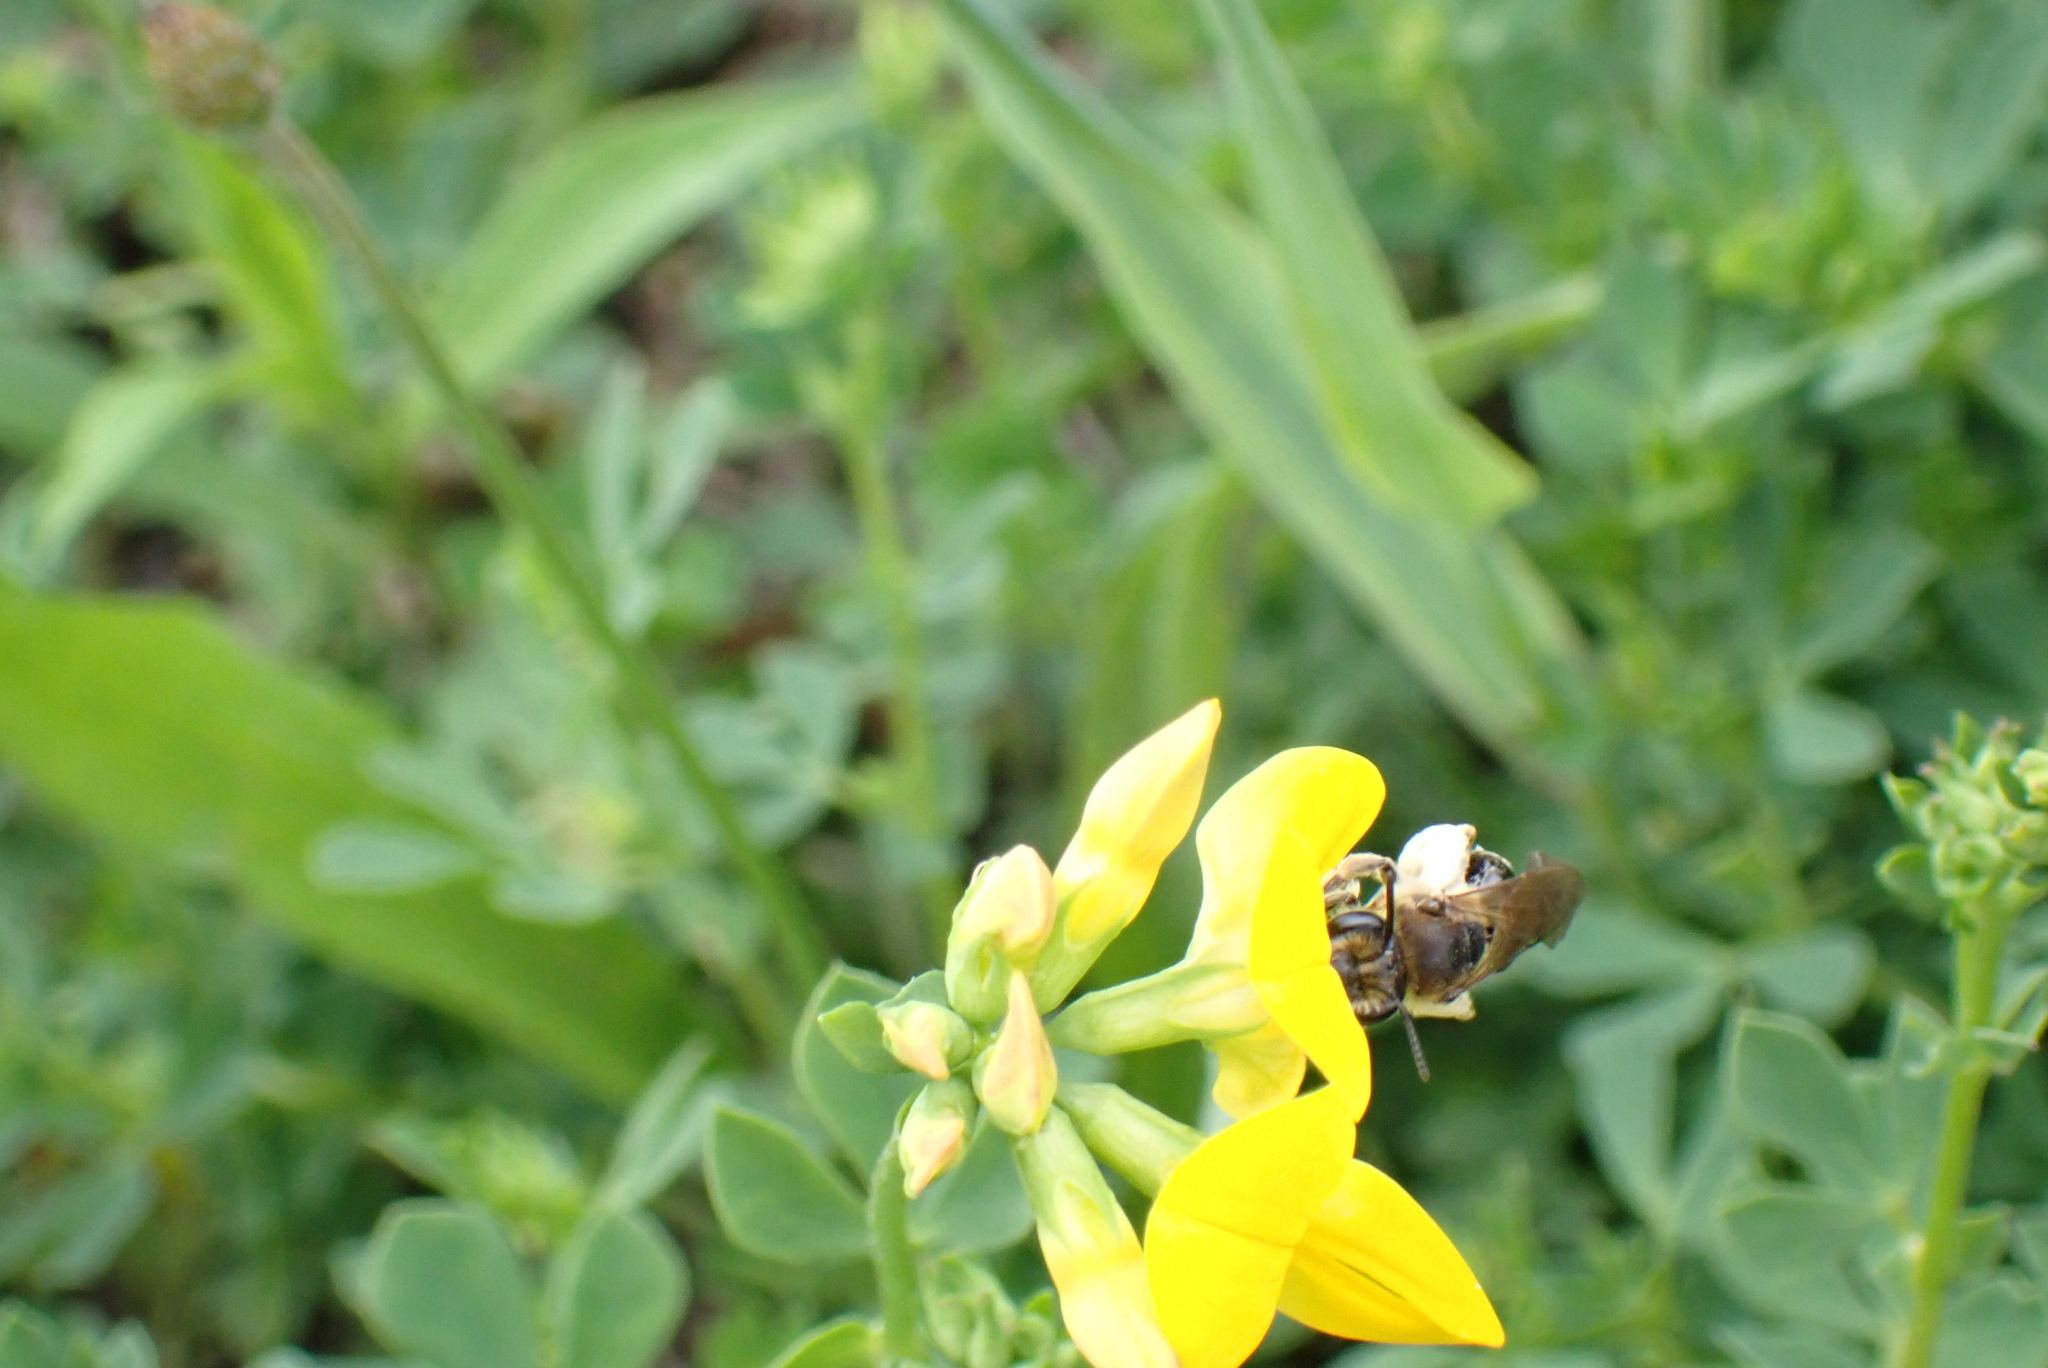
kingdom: Animalia
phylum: Arthropoda
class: Insecta
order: Hymenoptera
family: Andrenidae
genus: Andrena
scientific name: Andrena wilkella
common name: Wilke's mining bee
